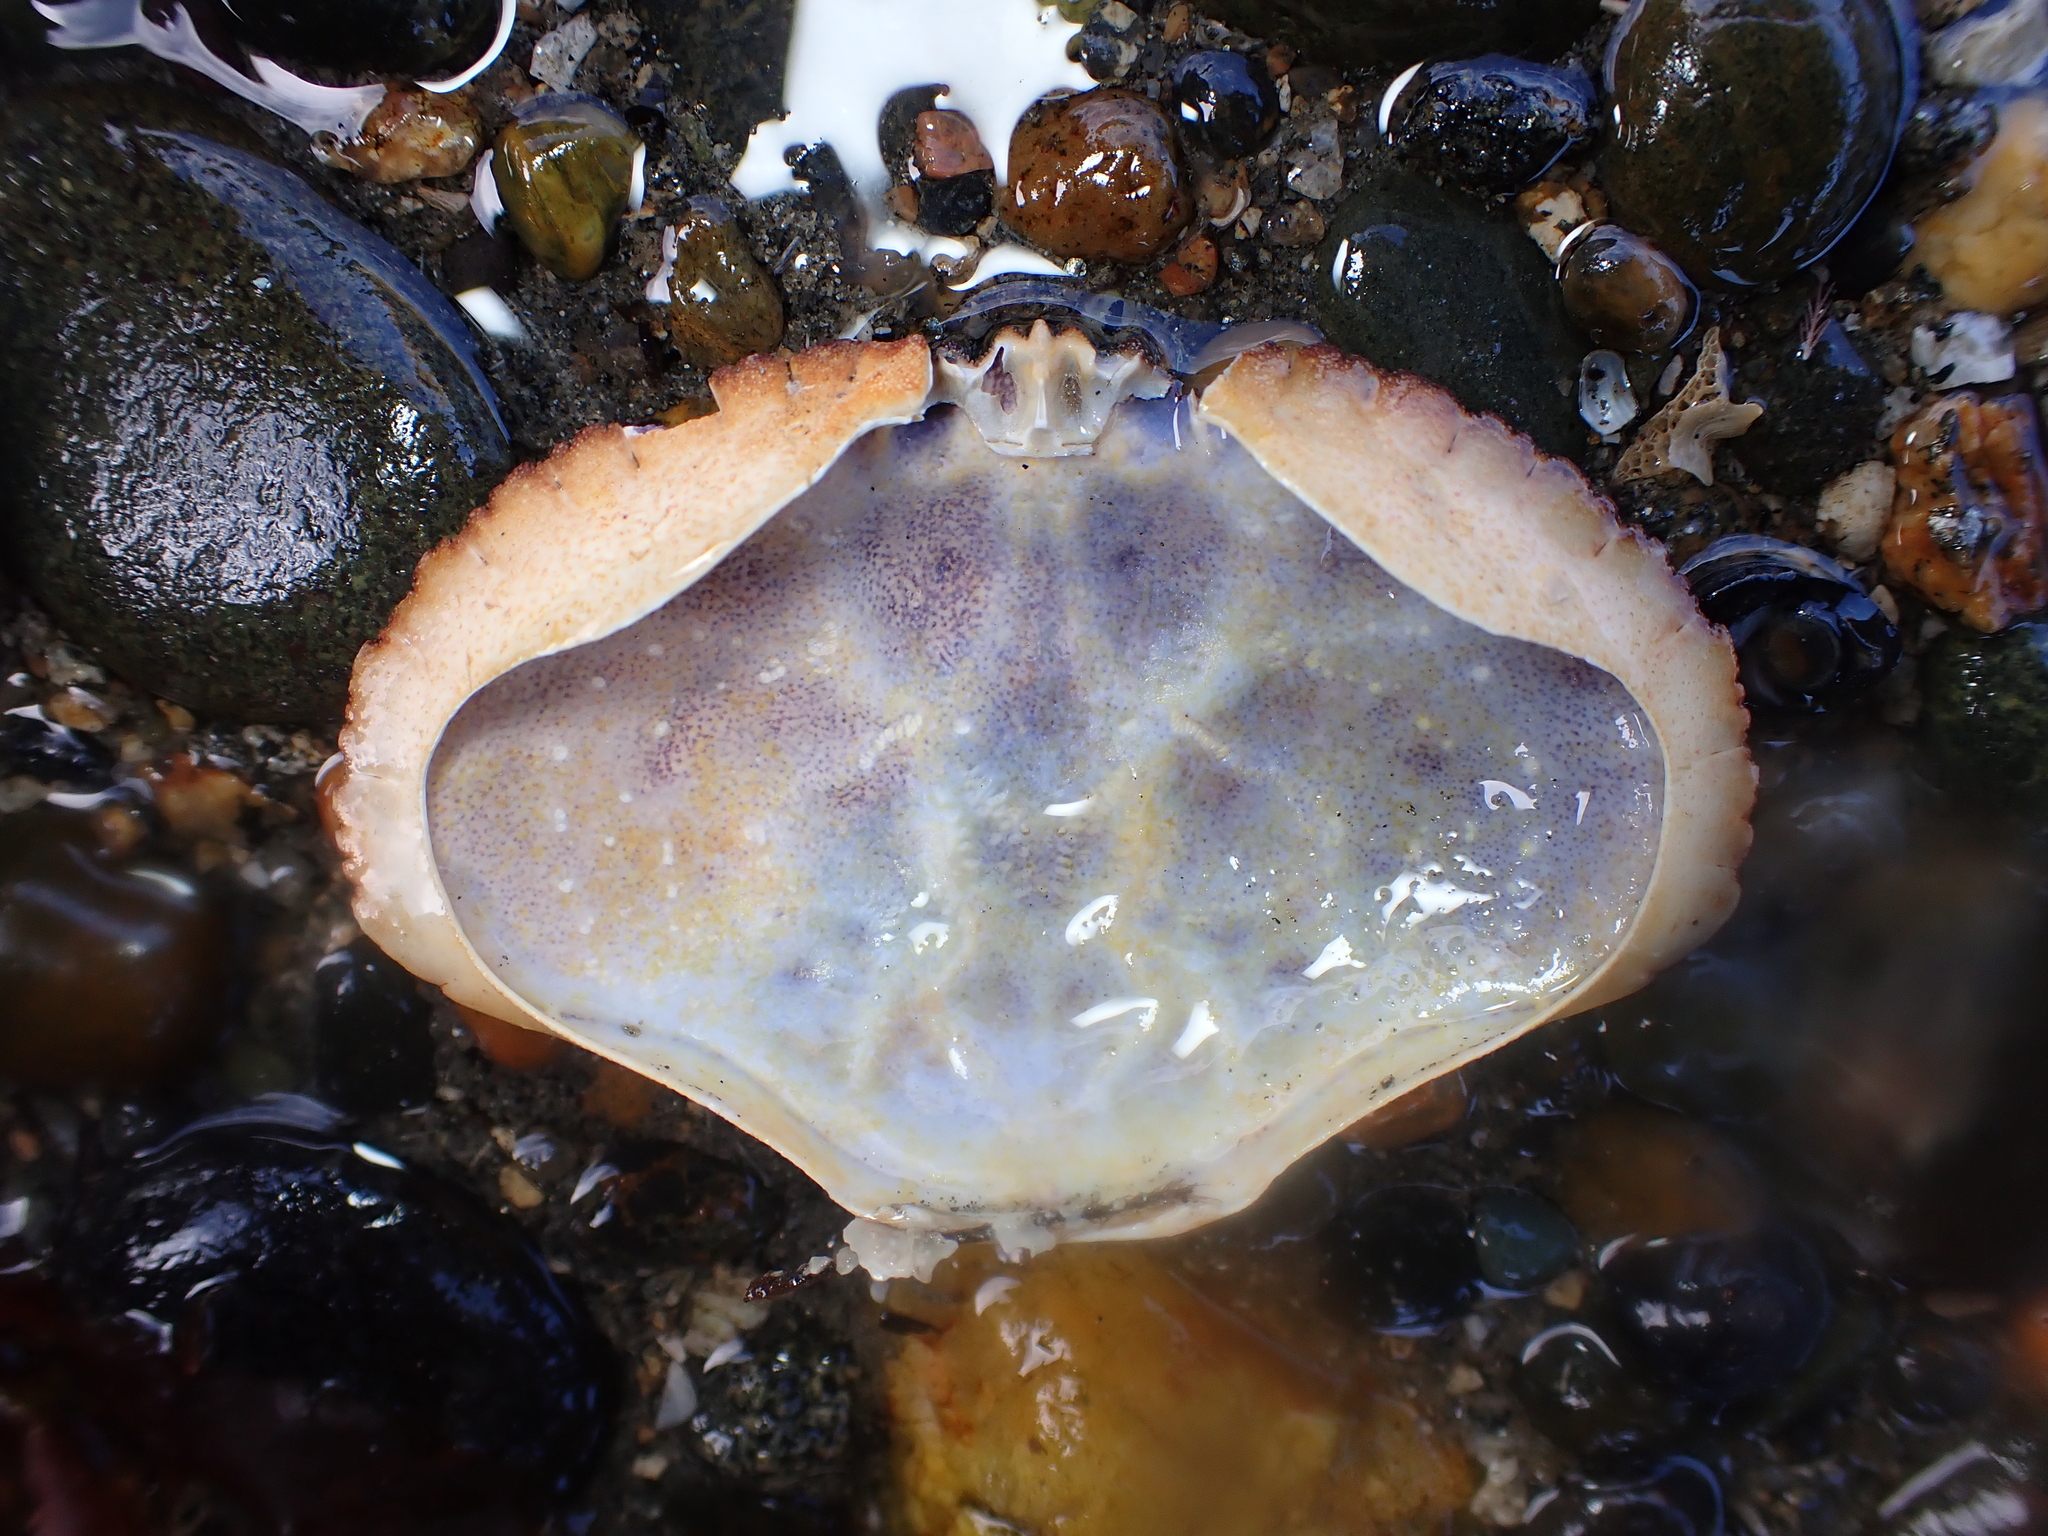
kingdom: Animalia
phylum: Arthropoda
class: Malacostraca
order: Decapoda
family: Cancridae
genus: Metacarcinus
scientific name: Metacarcinus novaezelandiae
